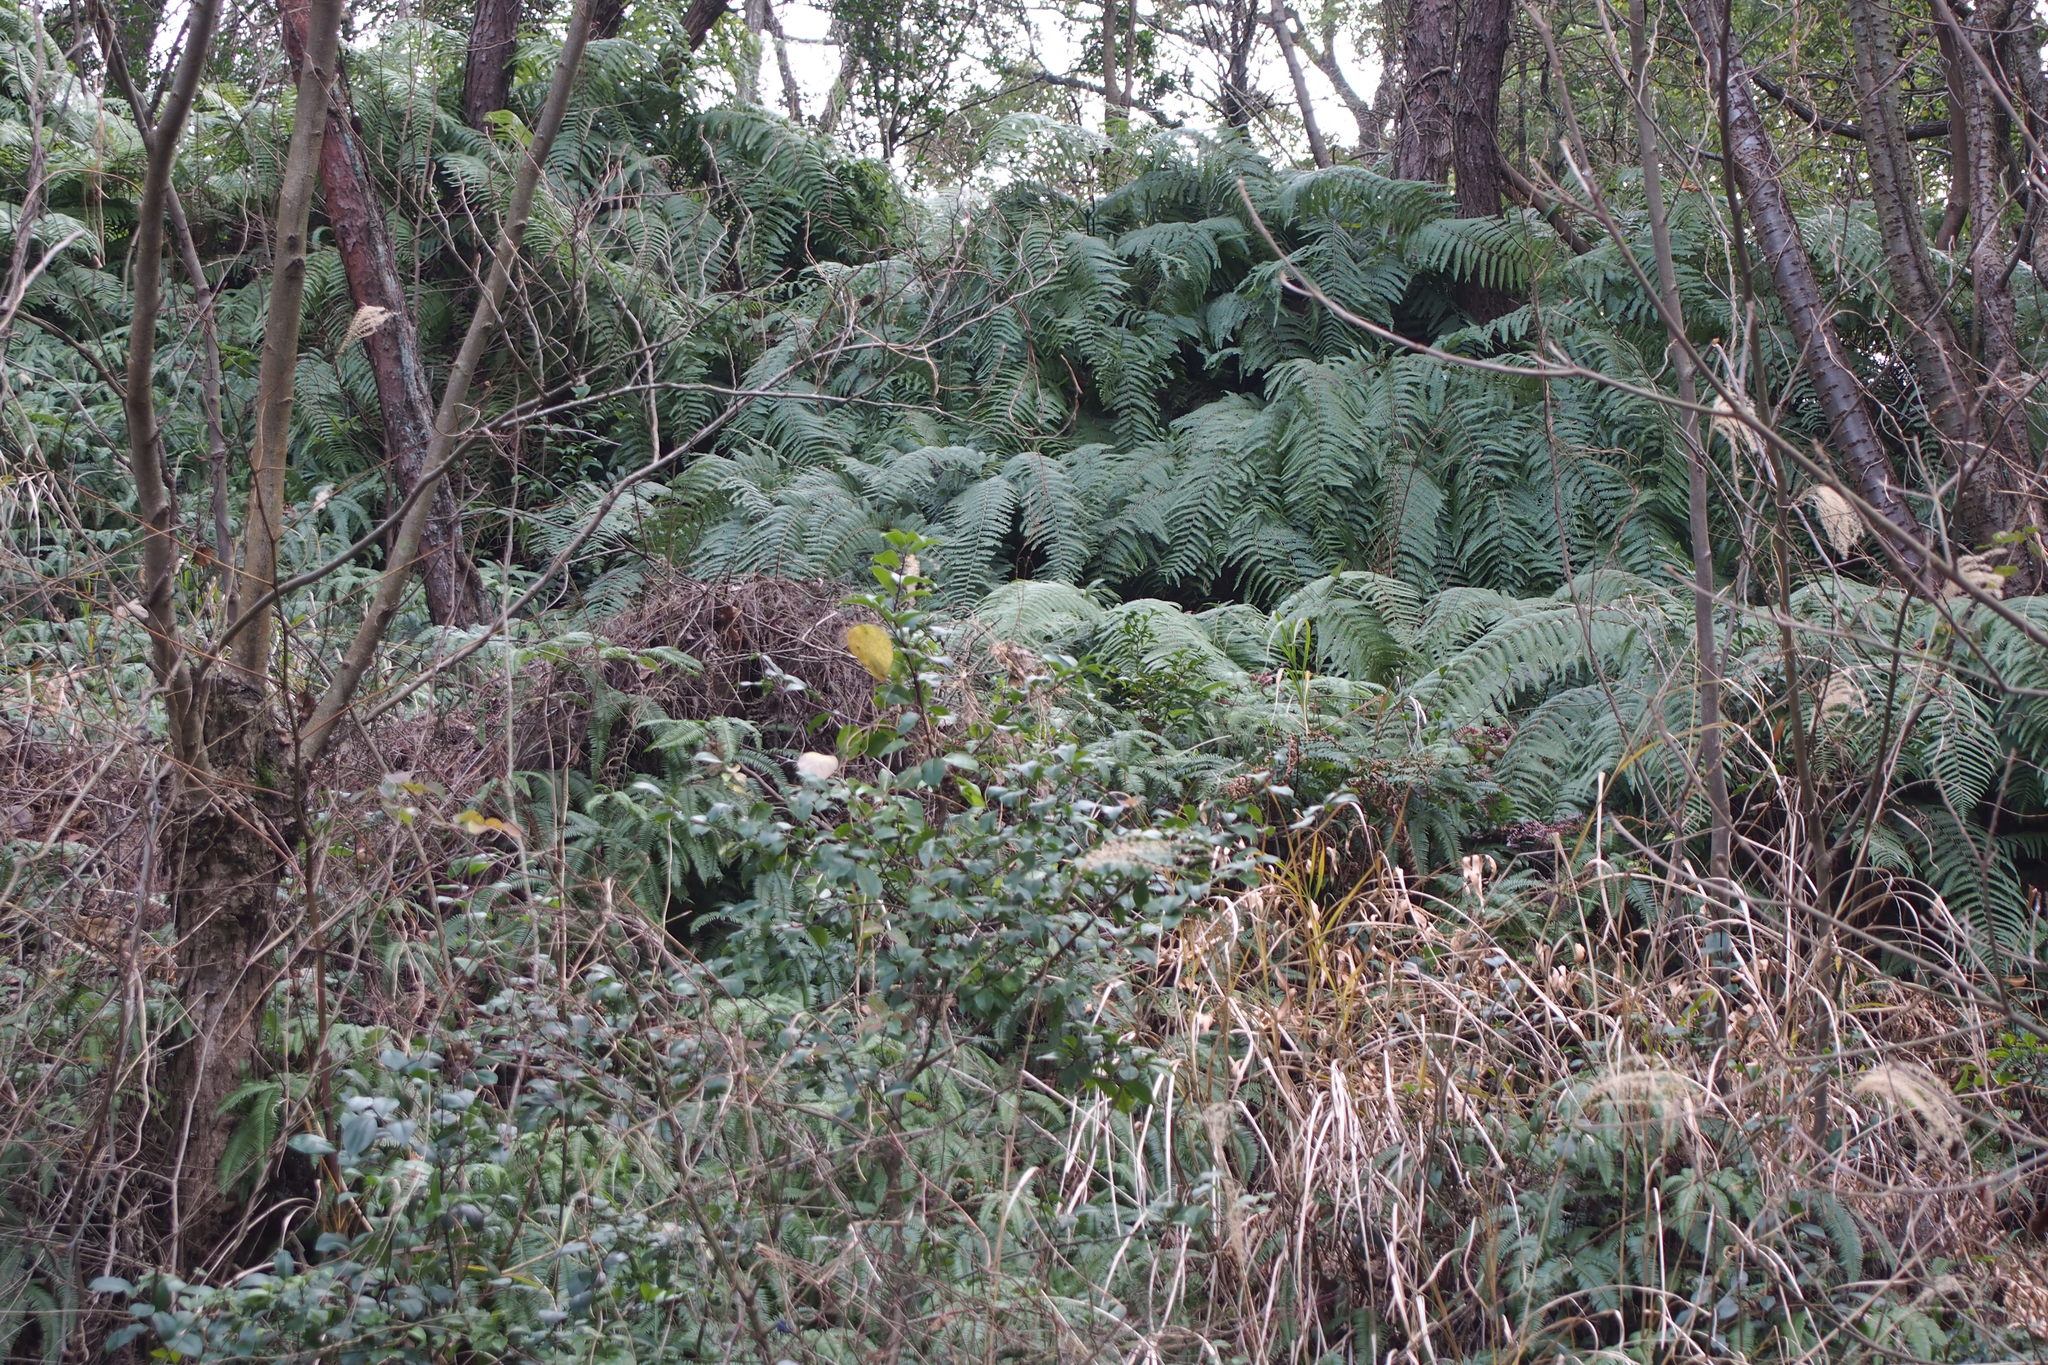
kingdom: Plantae
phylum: Tracheophyta
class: Polypodiopsida
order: Gleicheniales
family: Gleicheniaceae
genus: Diplopterygium
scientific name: Diplopterygium glaucum
